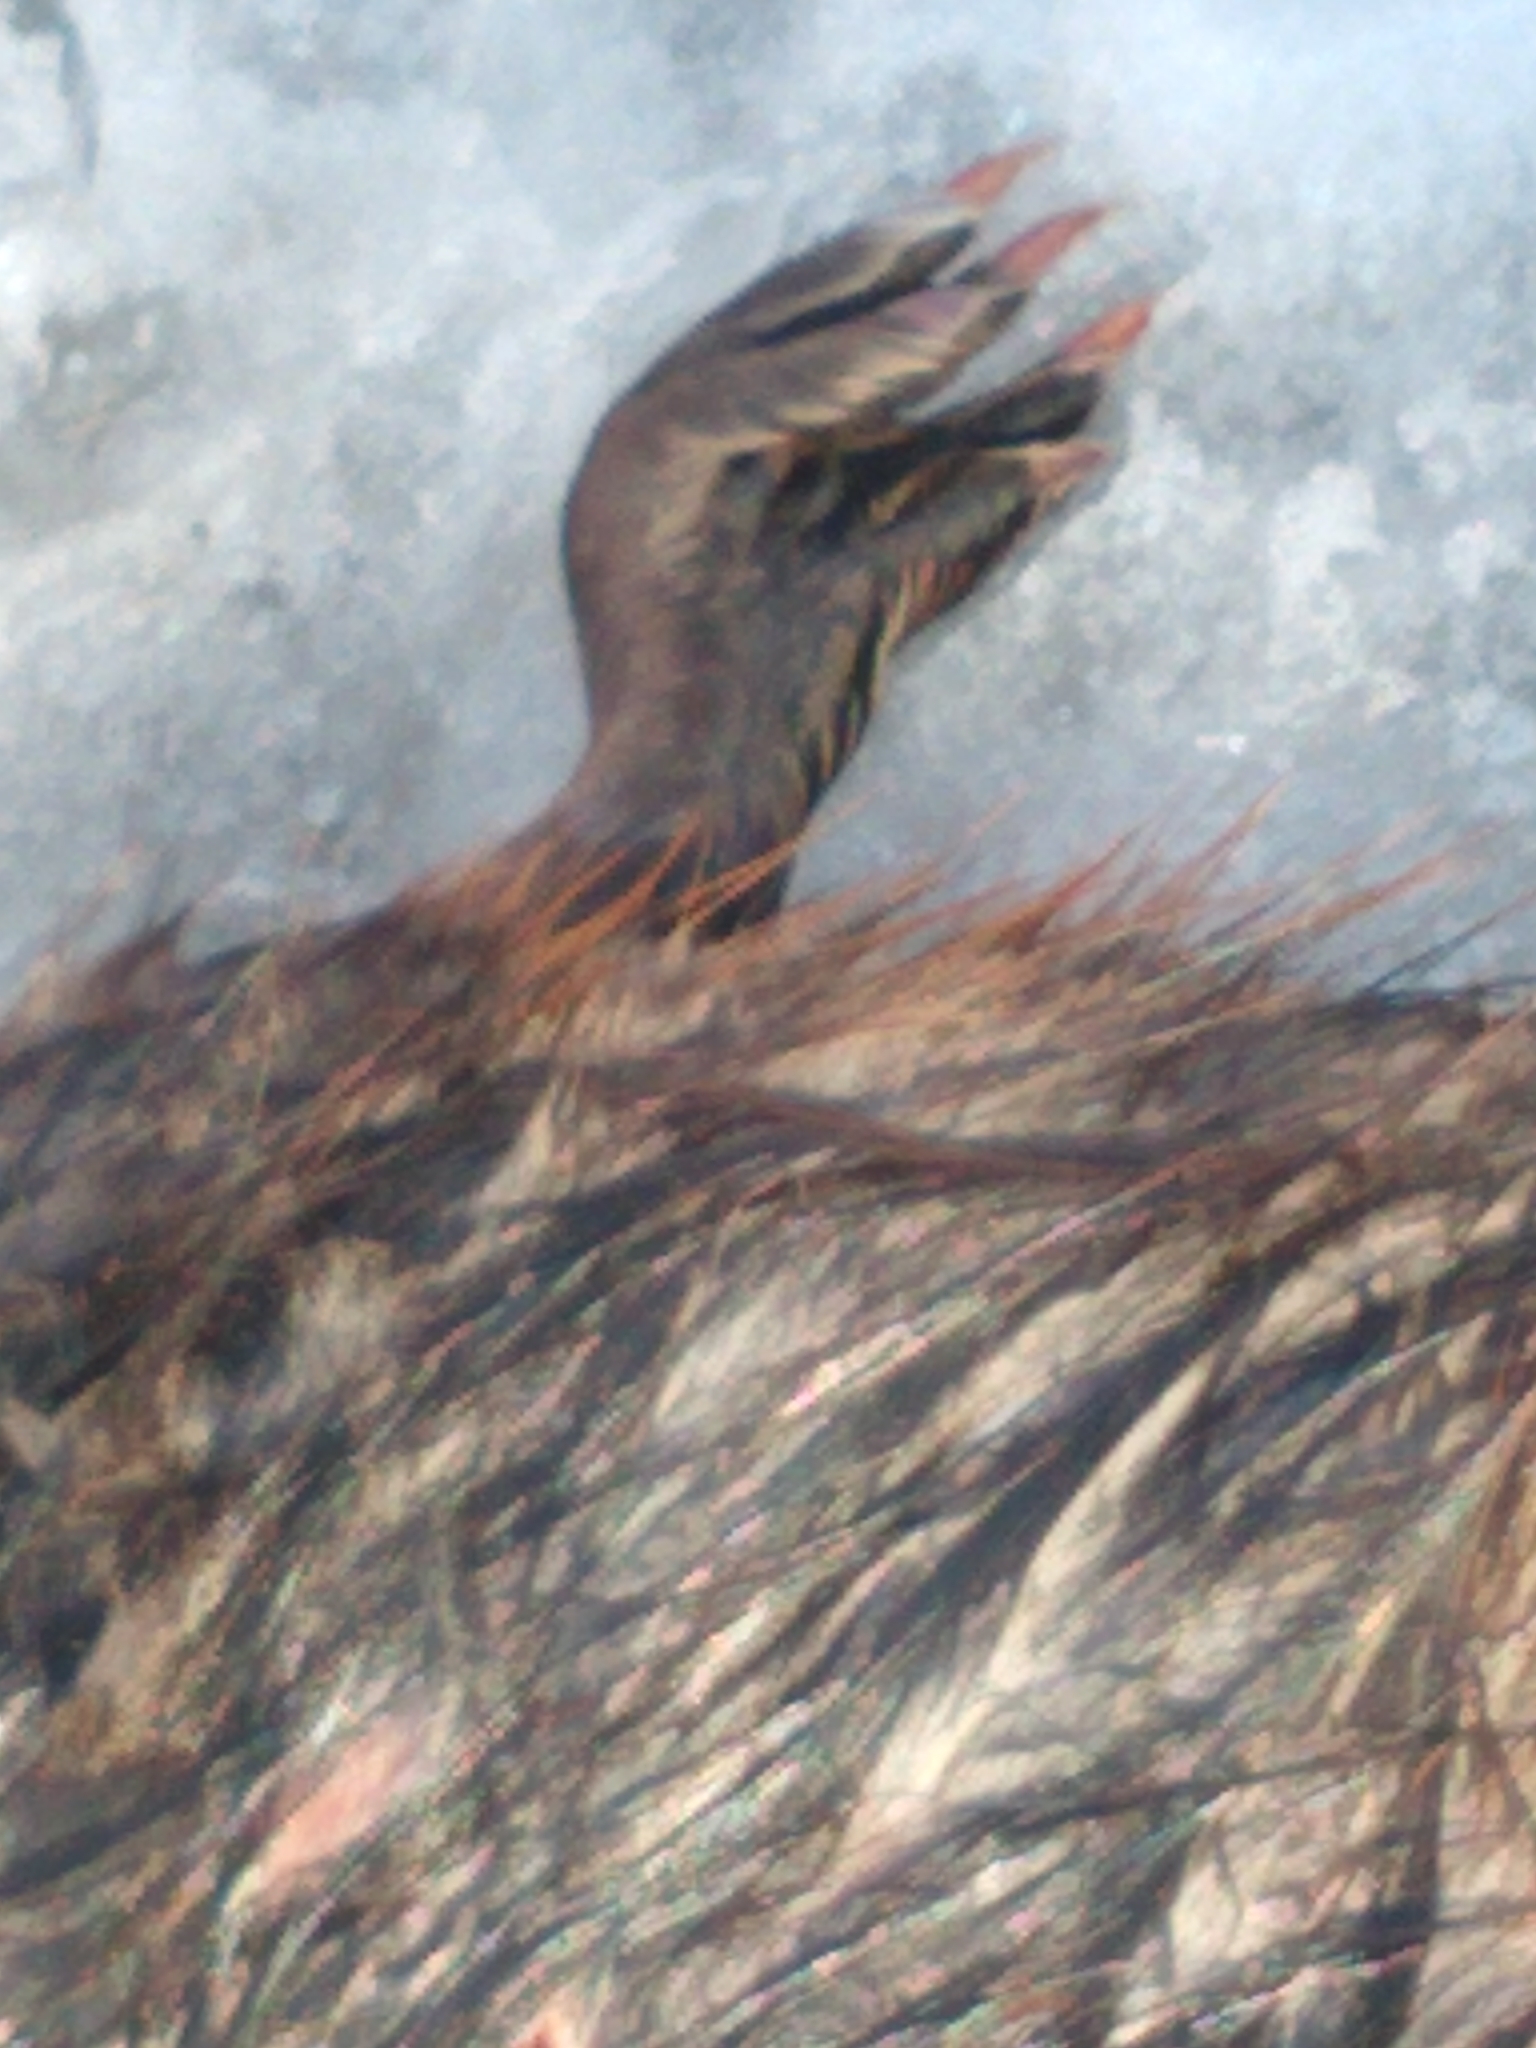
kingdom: Animalia
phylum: Chordata
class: Mammalia
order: Rodentia
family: Cricetidae
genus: Ondatra
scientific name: Ondatra zibethicus
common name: Muskrat
